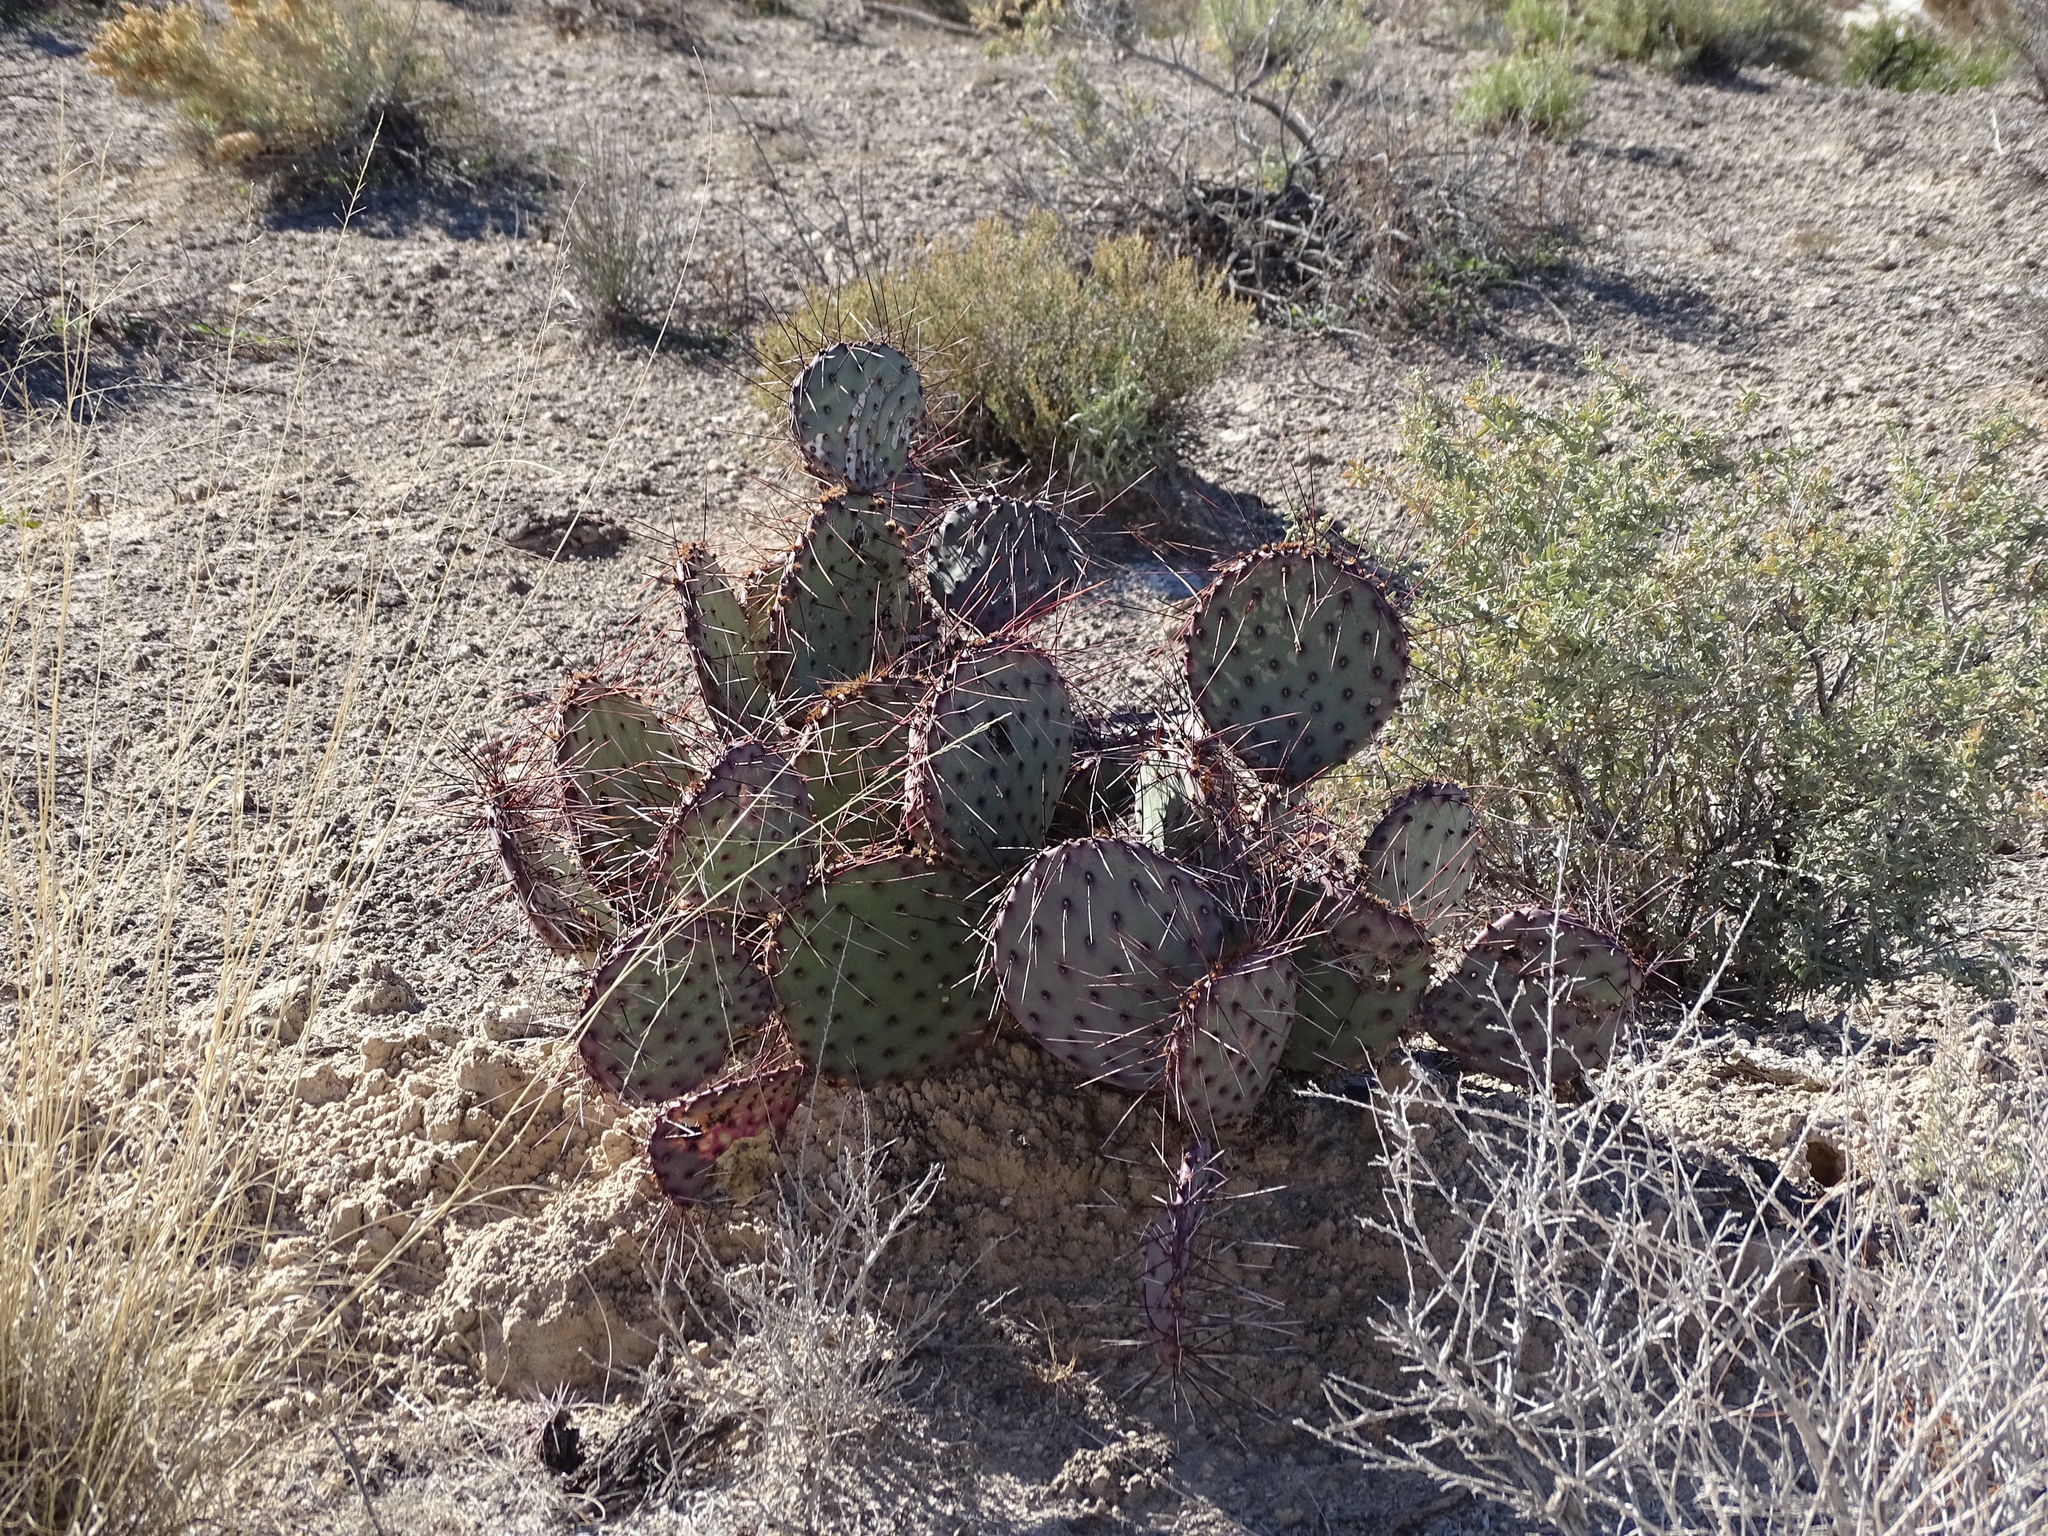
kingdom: Plantae
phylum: Tracheophyta
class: Magnoliopsida
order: Caryophyllales
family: Cactaceae
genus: Opuntia
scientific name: Opuntia macrocentra
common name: Purple prickly-pear
